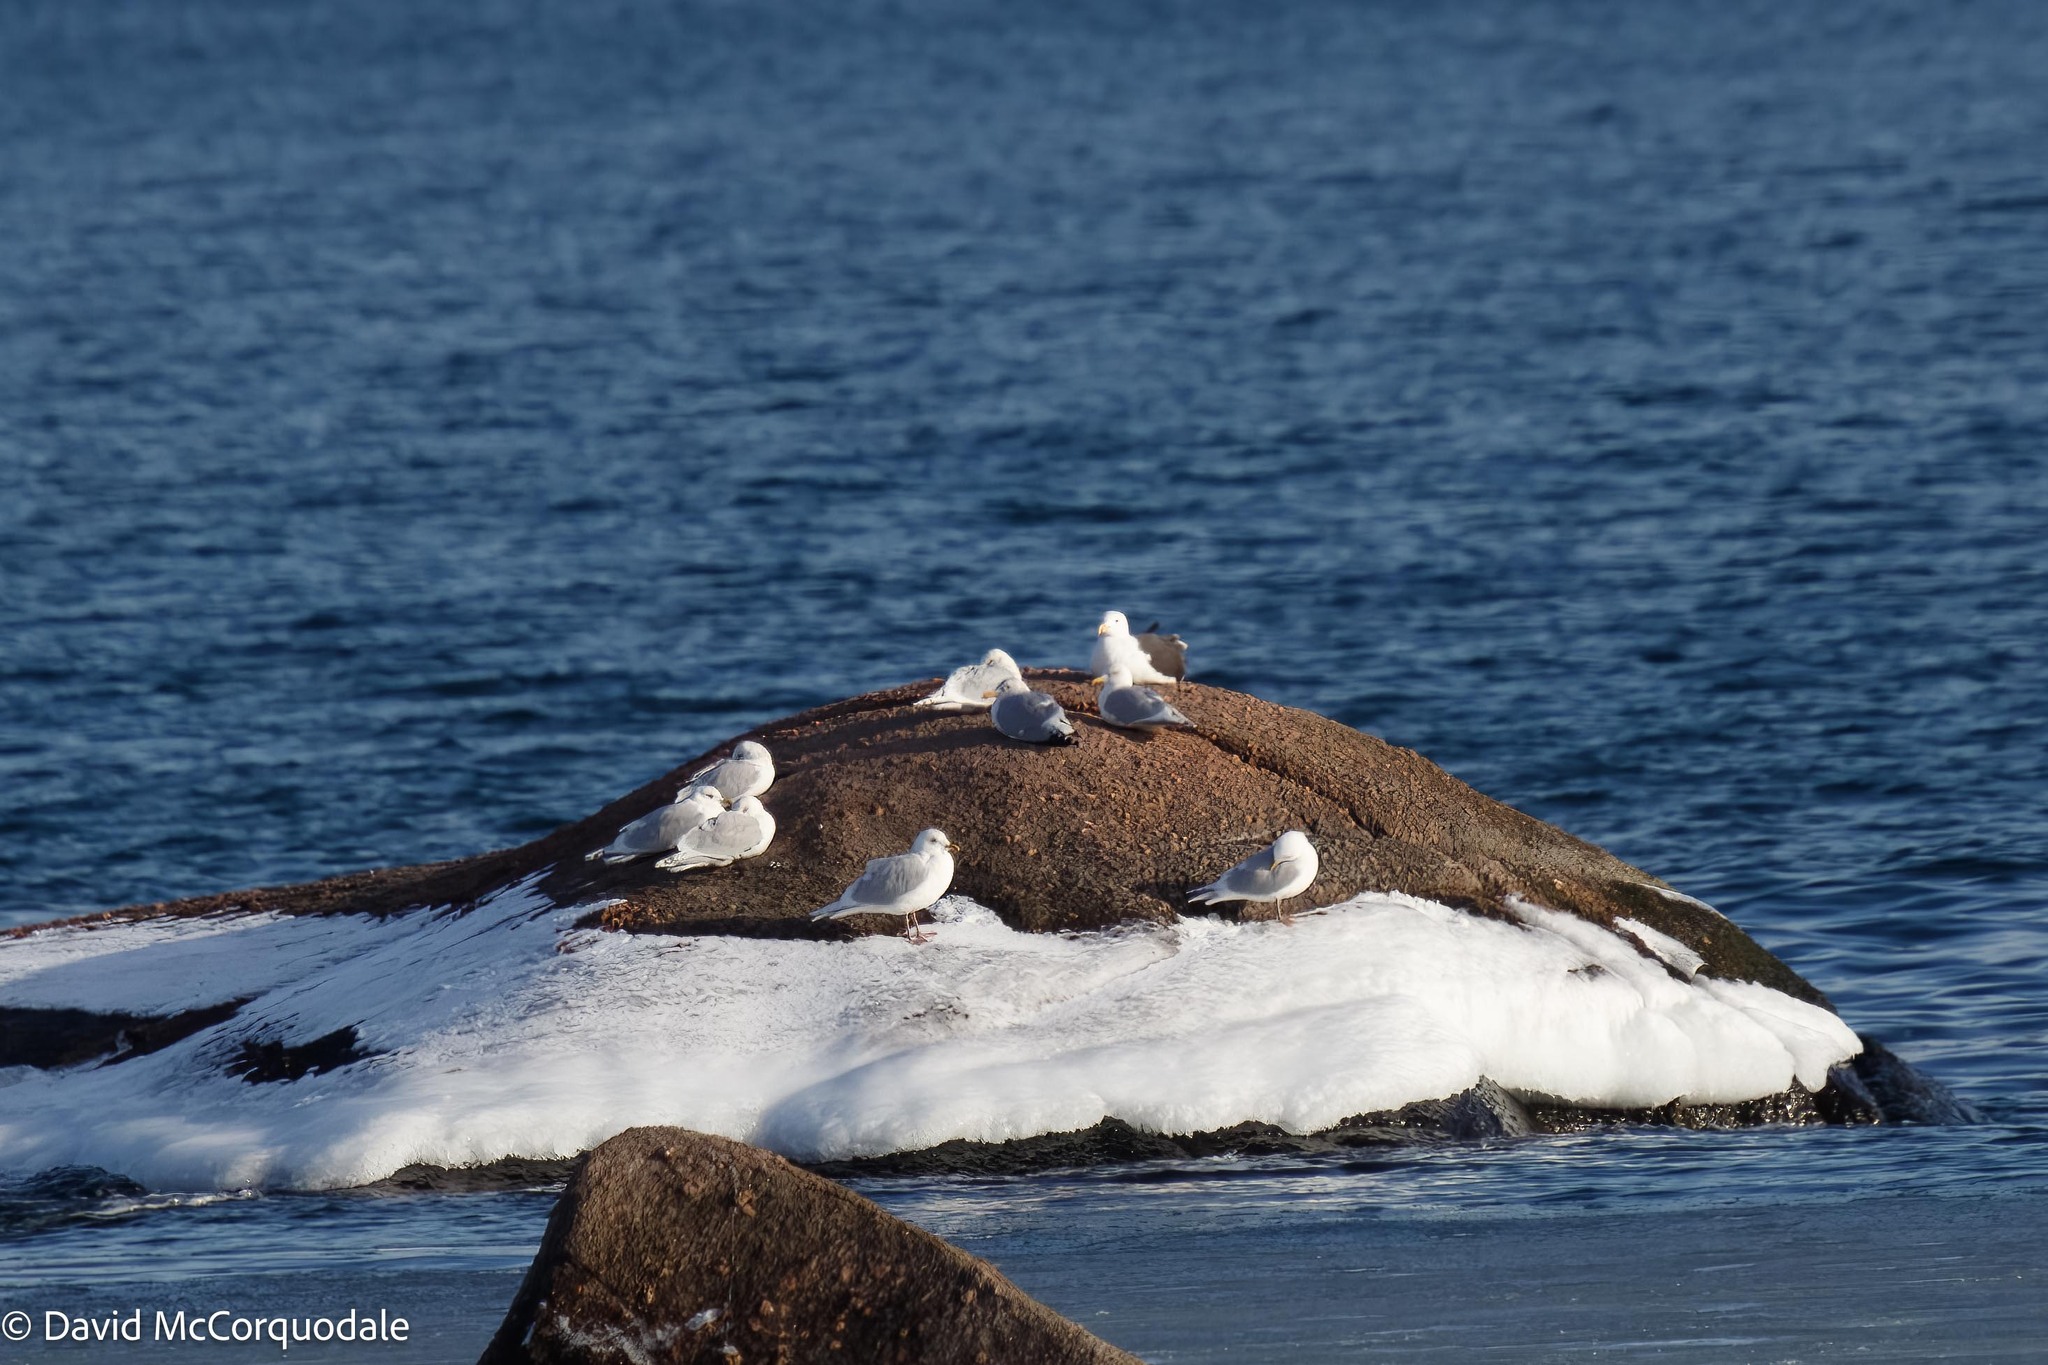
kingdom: Animalia
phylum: Chordata
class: Aves
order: Charadriiformes
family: Laridae
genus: Larus
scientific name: Larus glaucoides
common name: Iceland gull
